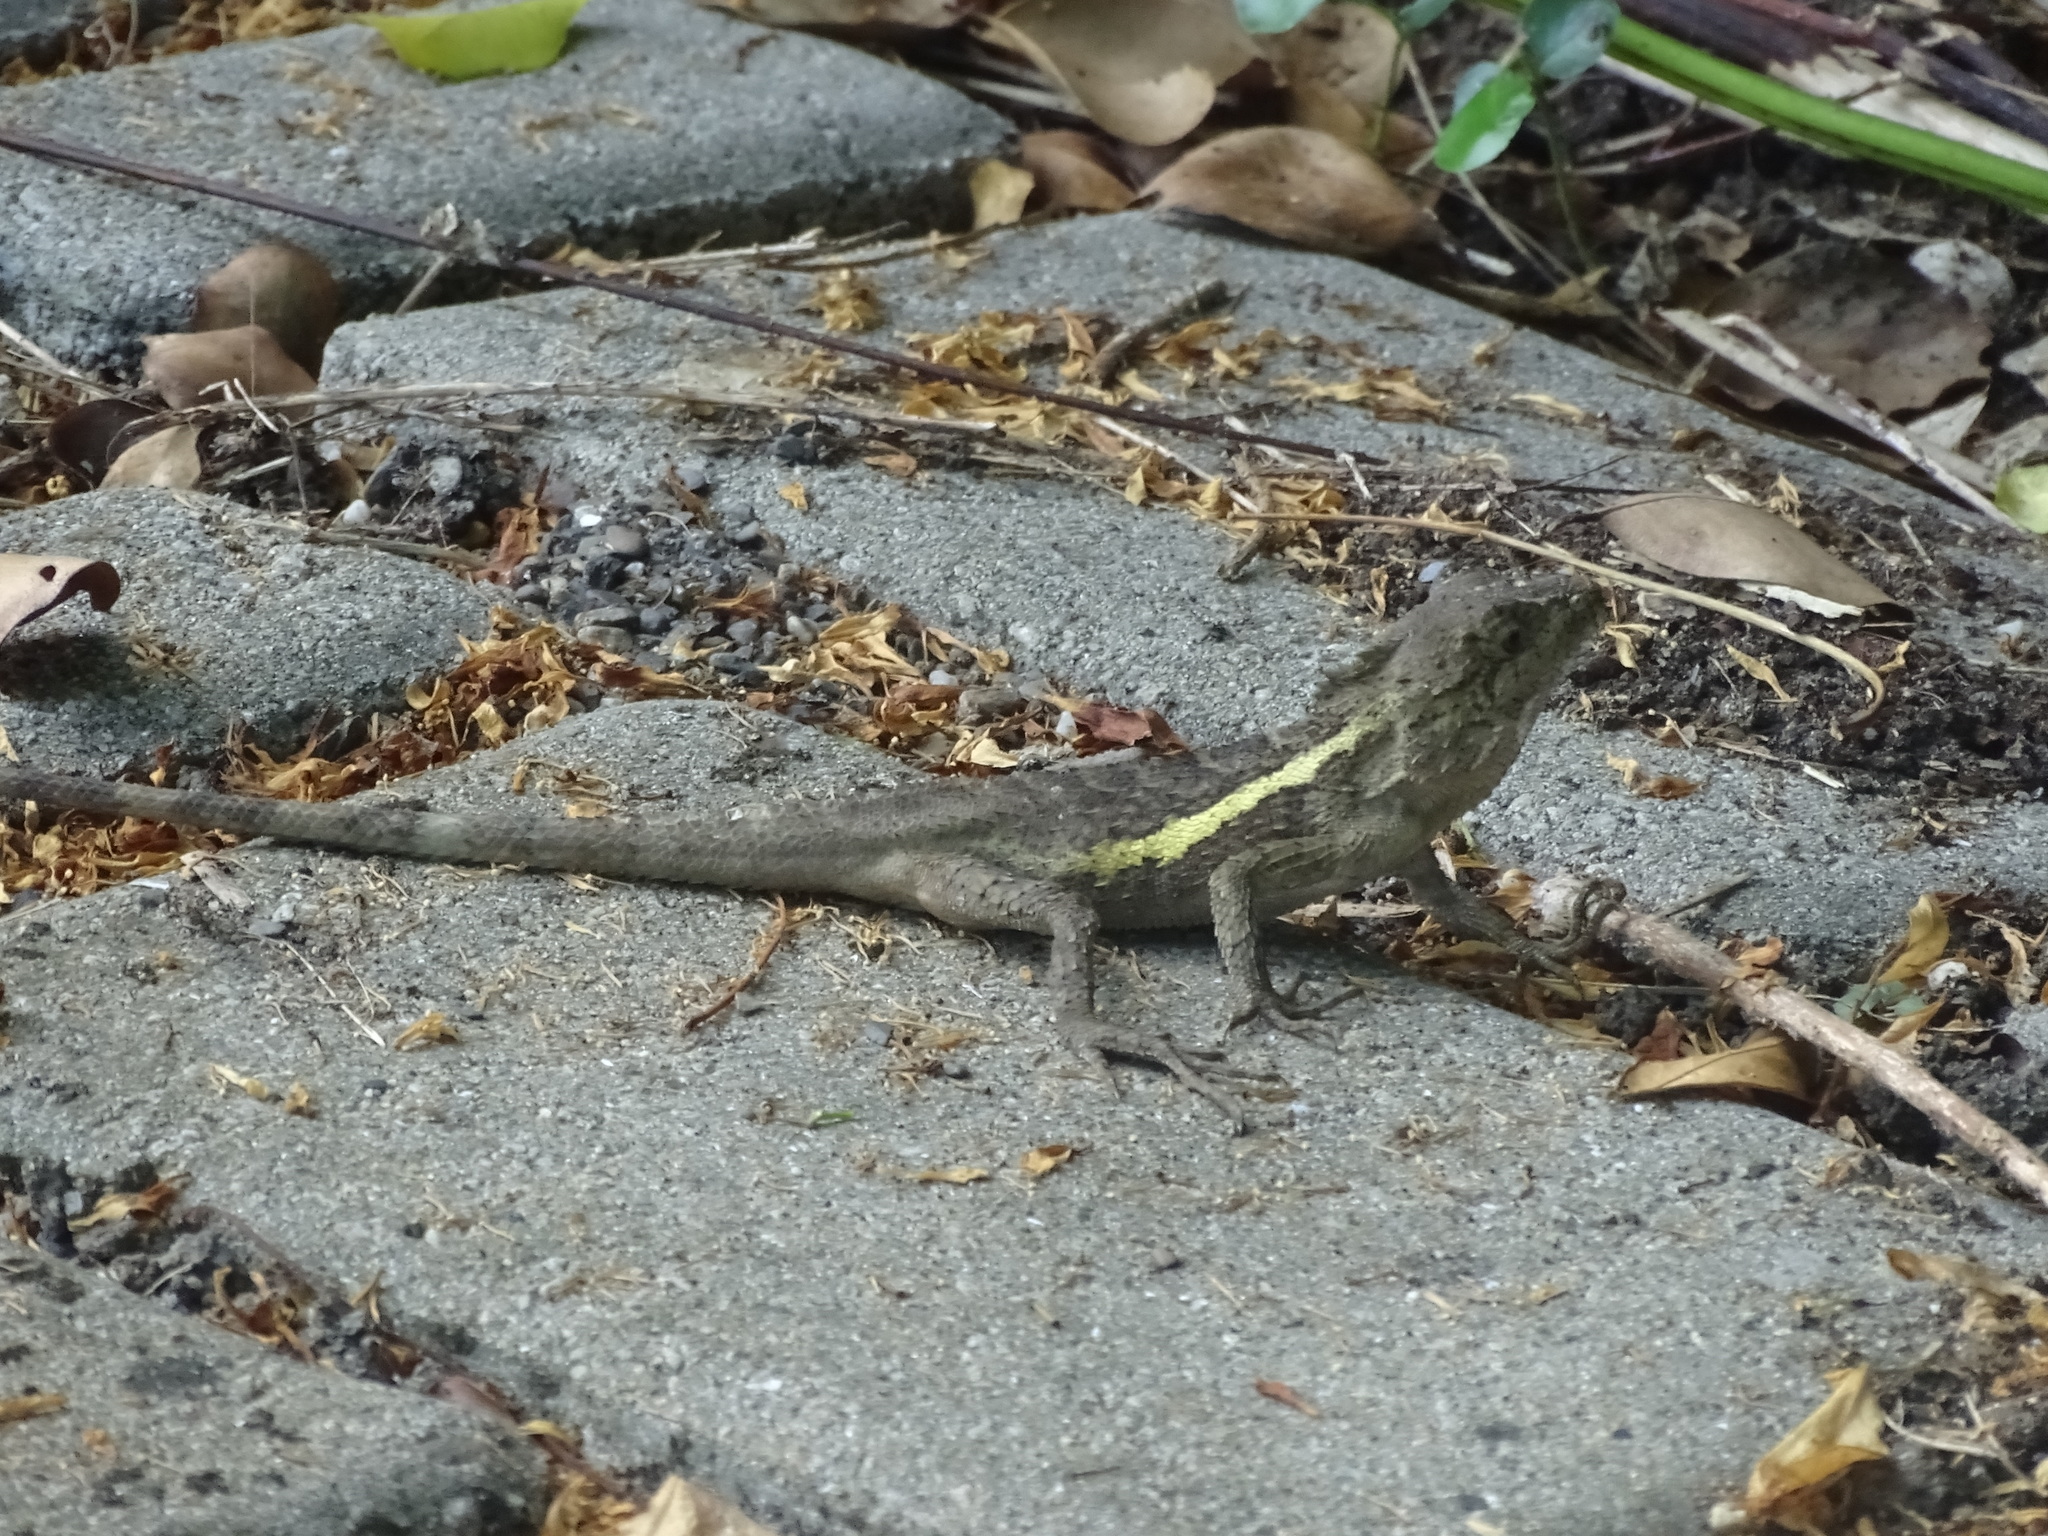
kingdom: Animalia
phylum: Chordata
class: Squamata
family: Agamidae
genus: Diploderma
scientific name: Diploderma swinhonis
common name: Taiwan japalure
